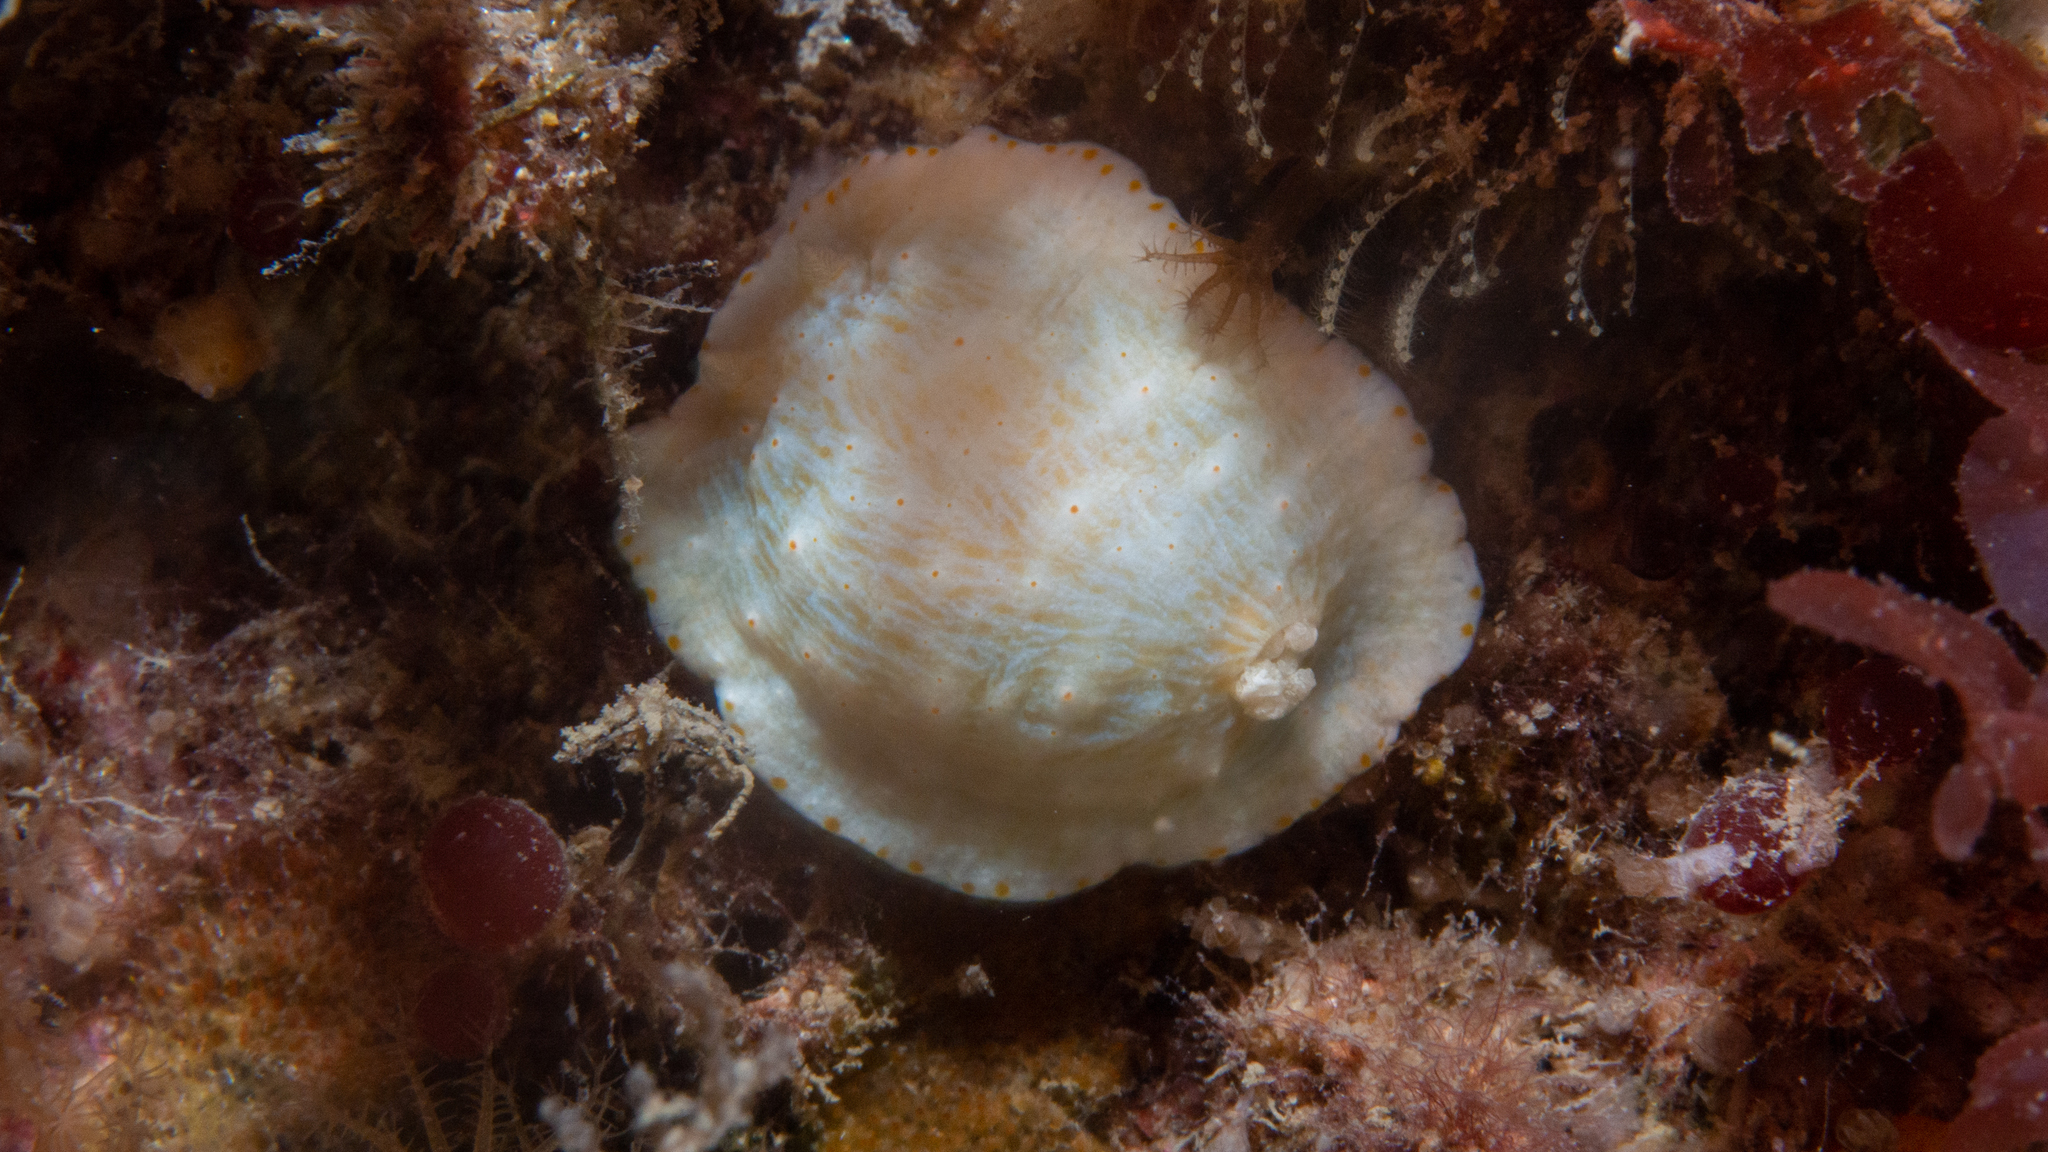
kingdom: Animalia
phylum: Mollusca
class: Gastropoda
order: Nudibranchia
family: Chromodorididae
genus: Goniobranchus
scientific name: Goniobranchus epicurius
